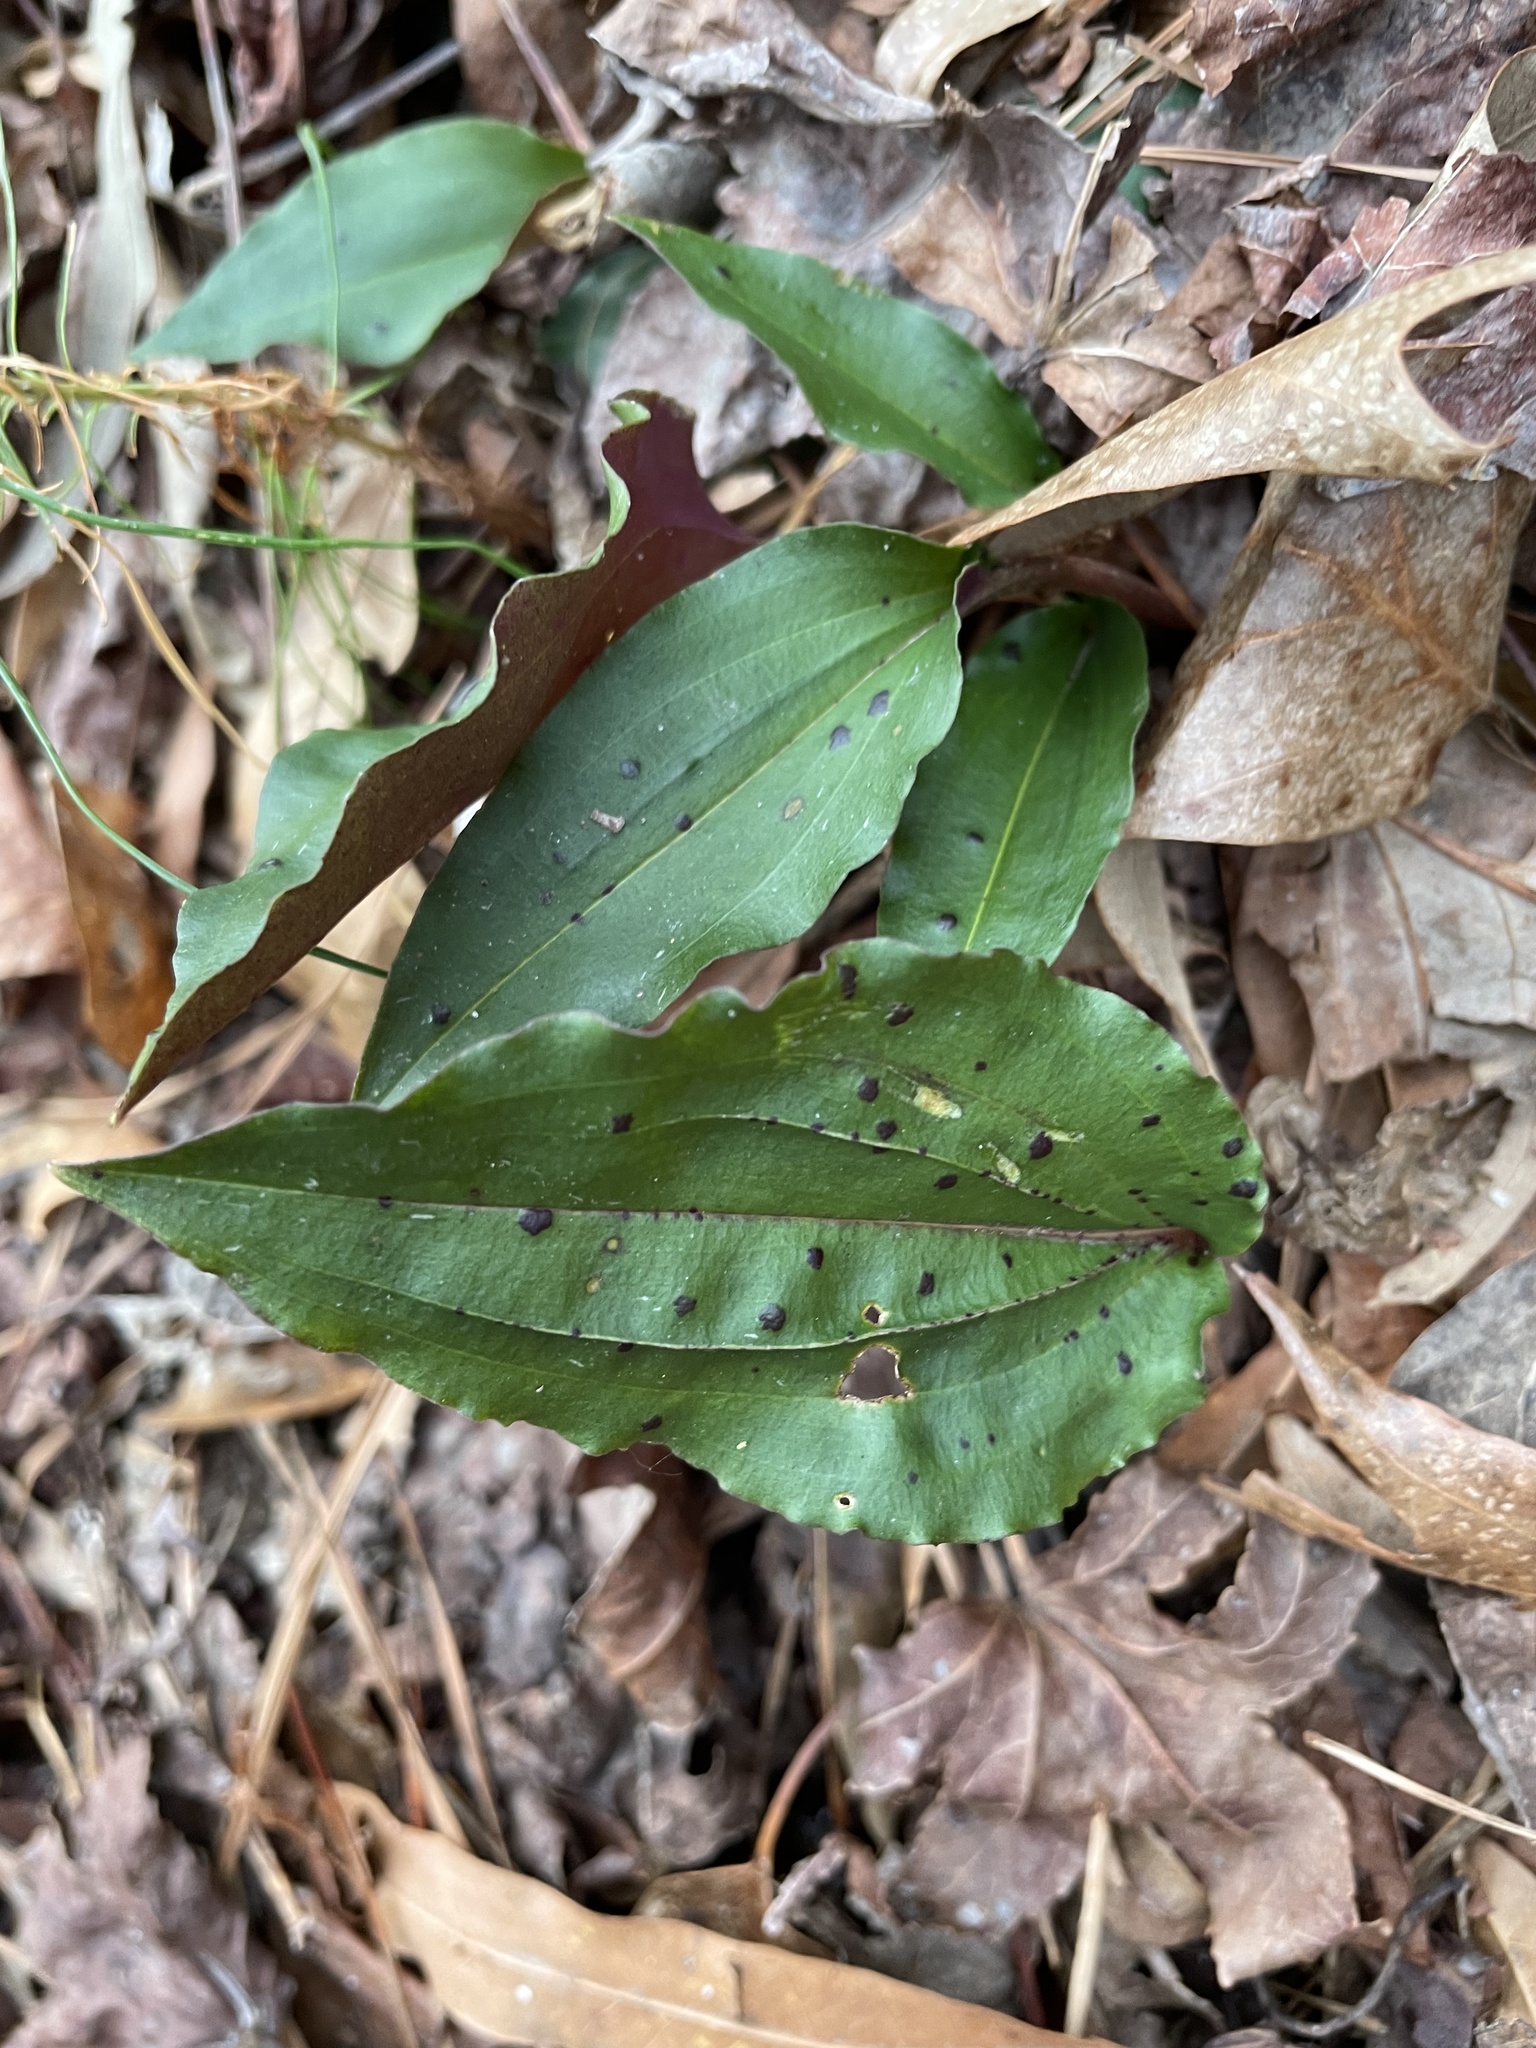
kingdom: Plantae
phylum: Tracheophyta
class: Liliopsida
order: Asparagales
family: Orchidaceae
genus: Tipularia
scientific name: Tipularia discolor
